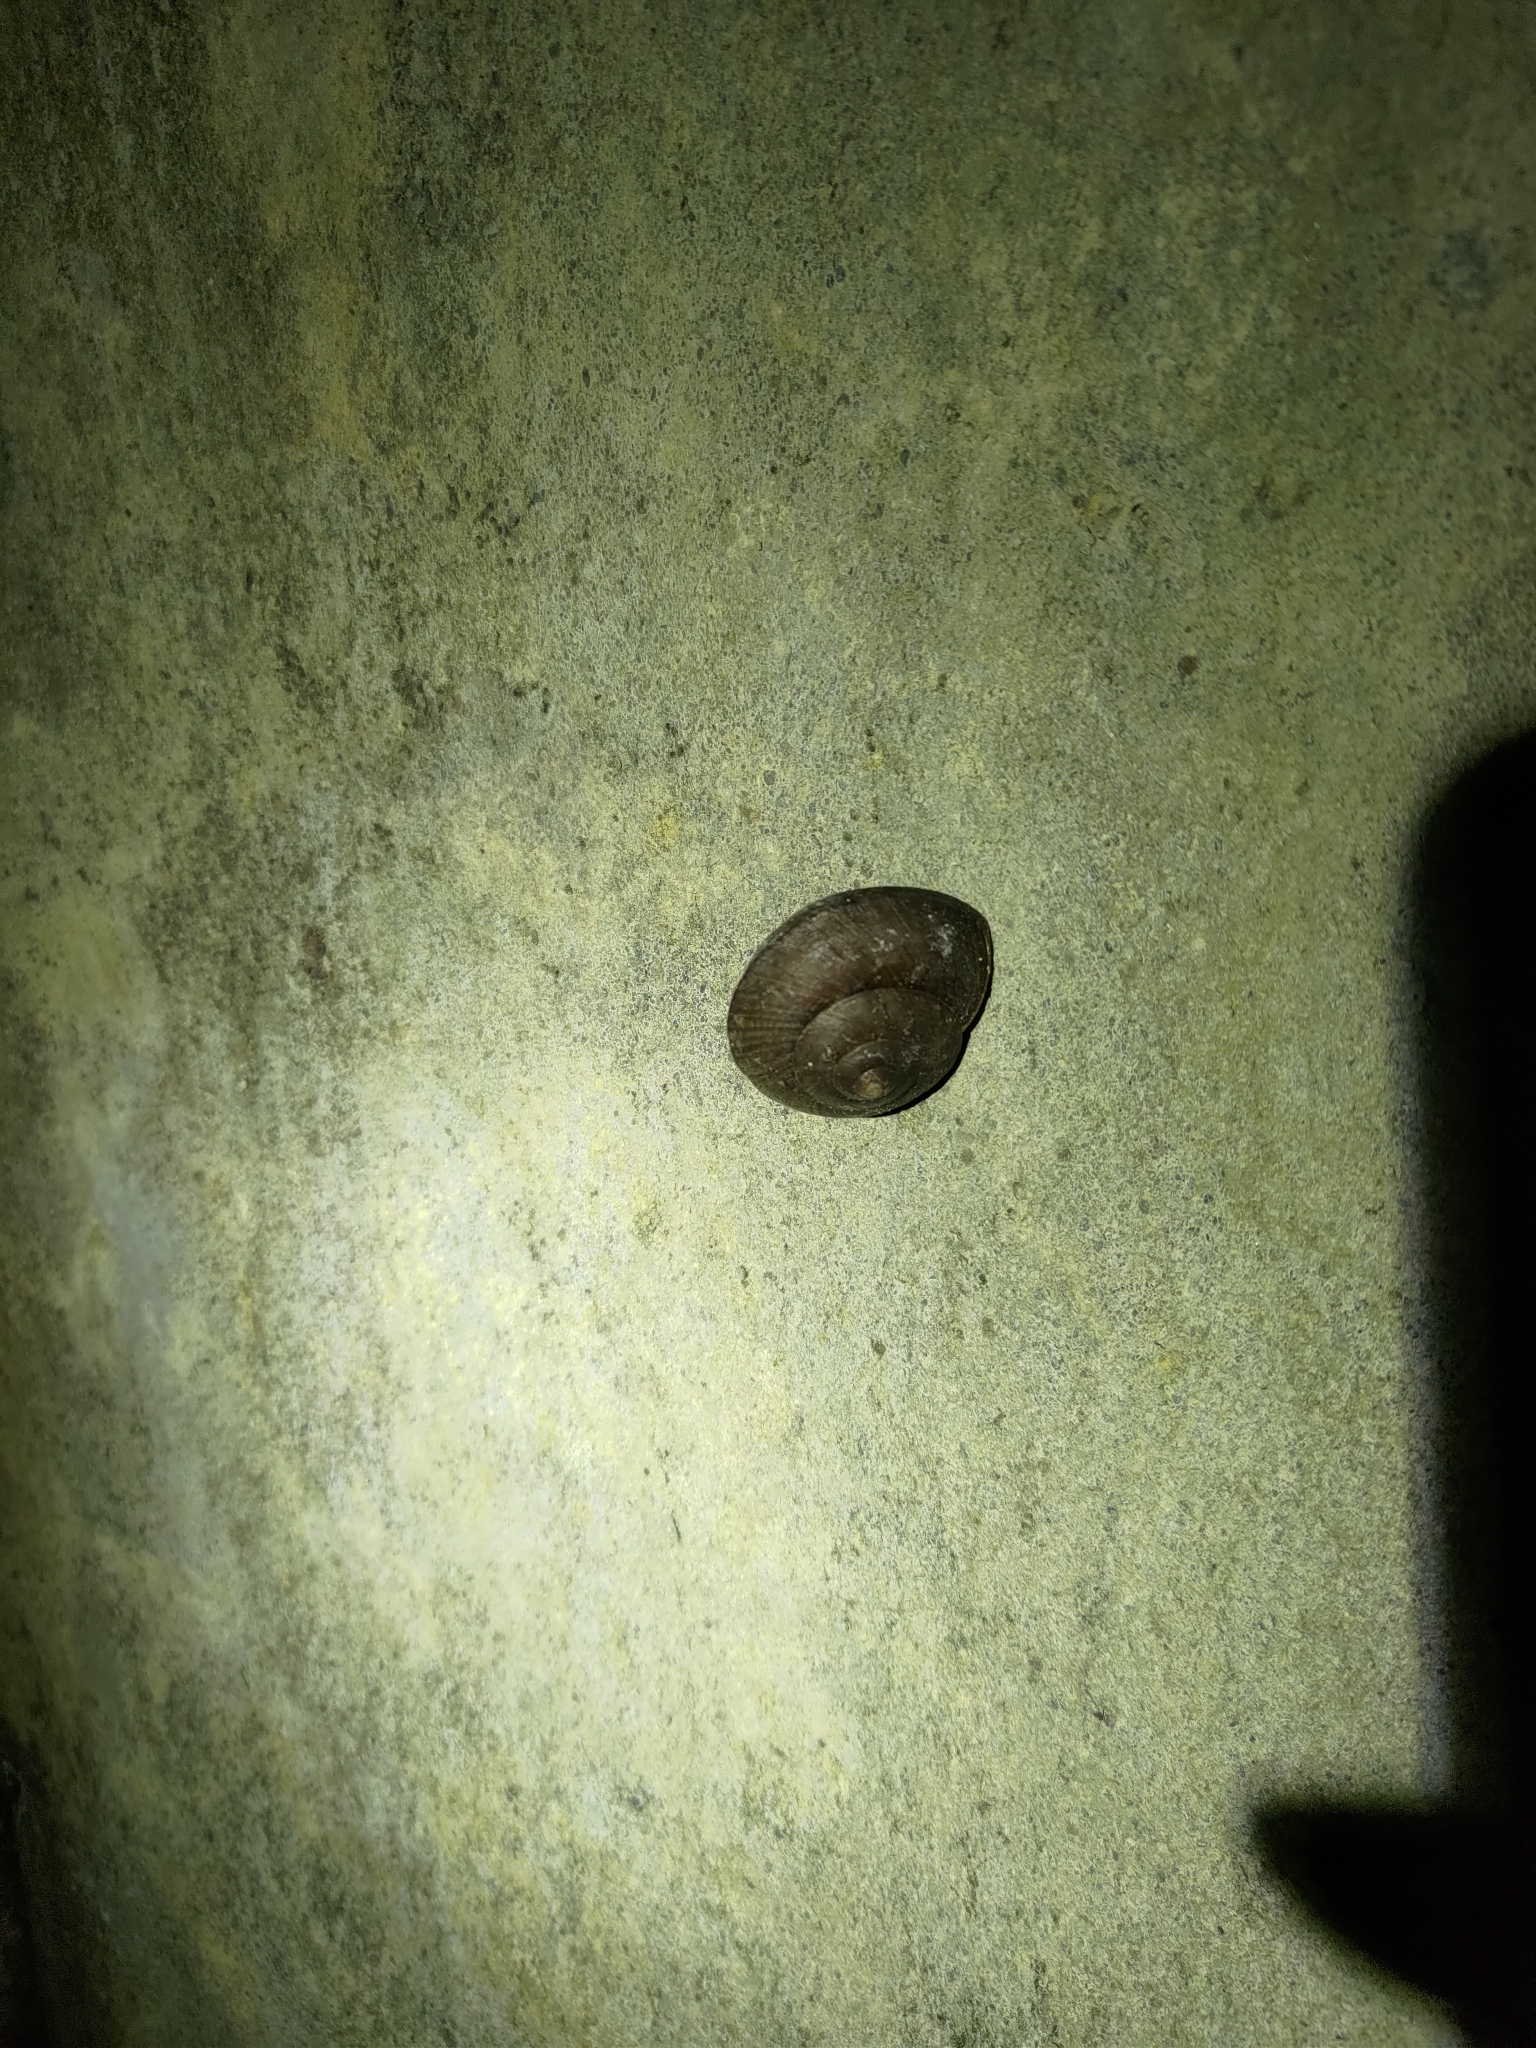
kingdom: Animalia
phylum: Mollusca
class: Gastropoda
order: Stylommatophora
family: Camaenidae
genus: Nesiohelix
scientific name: Nesiohelix swinhoei
